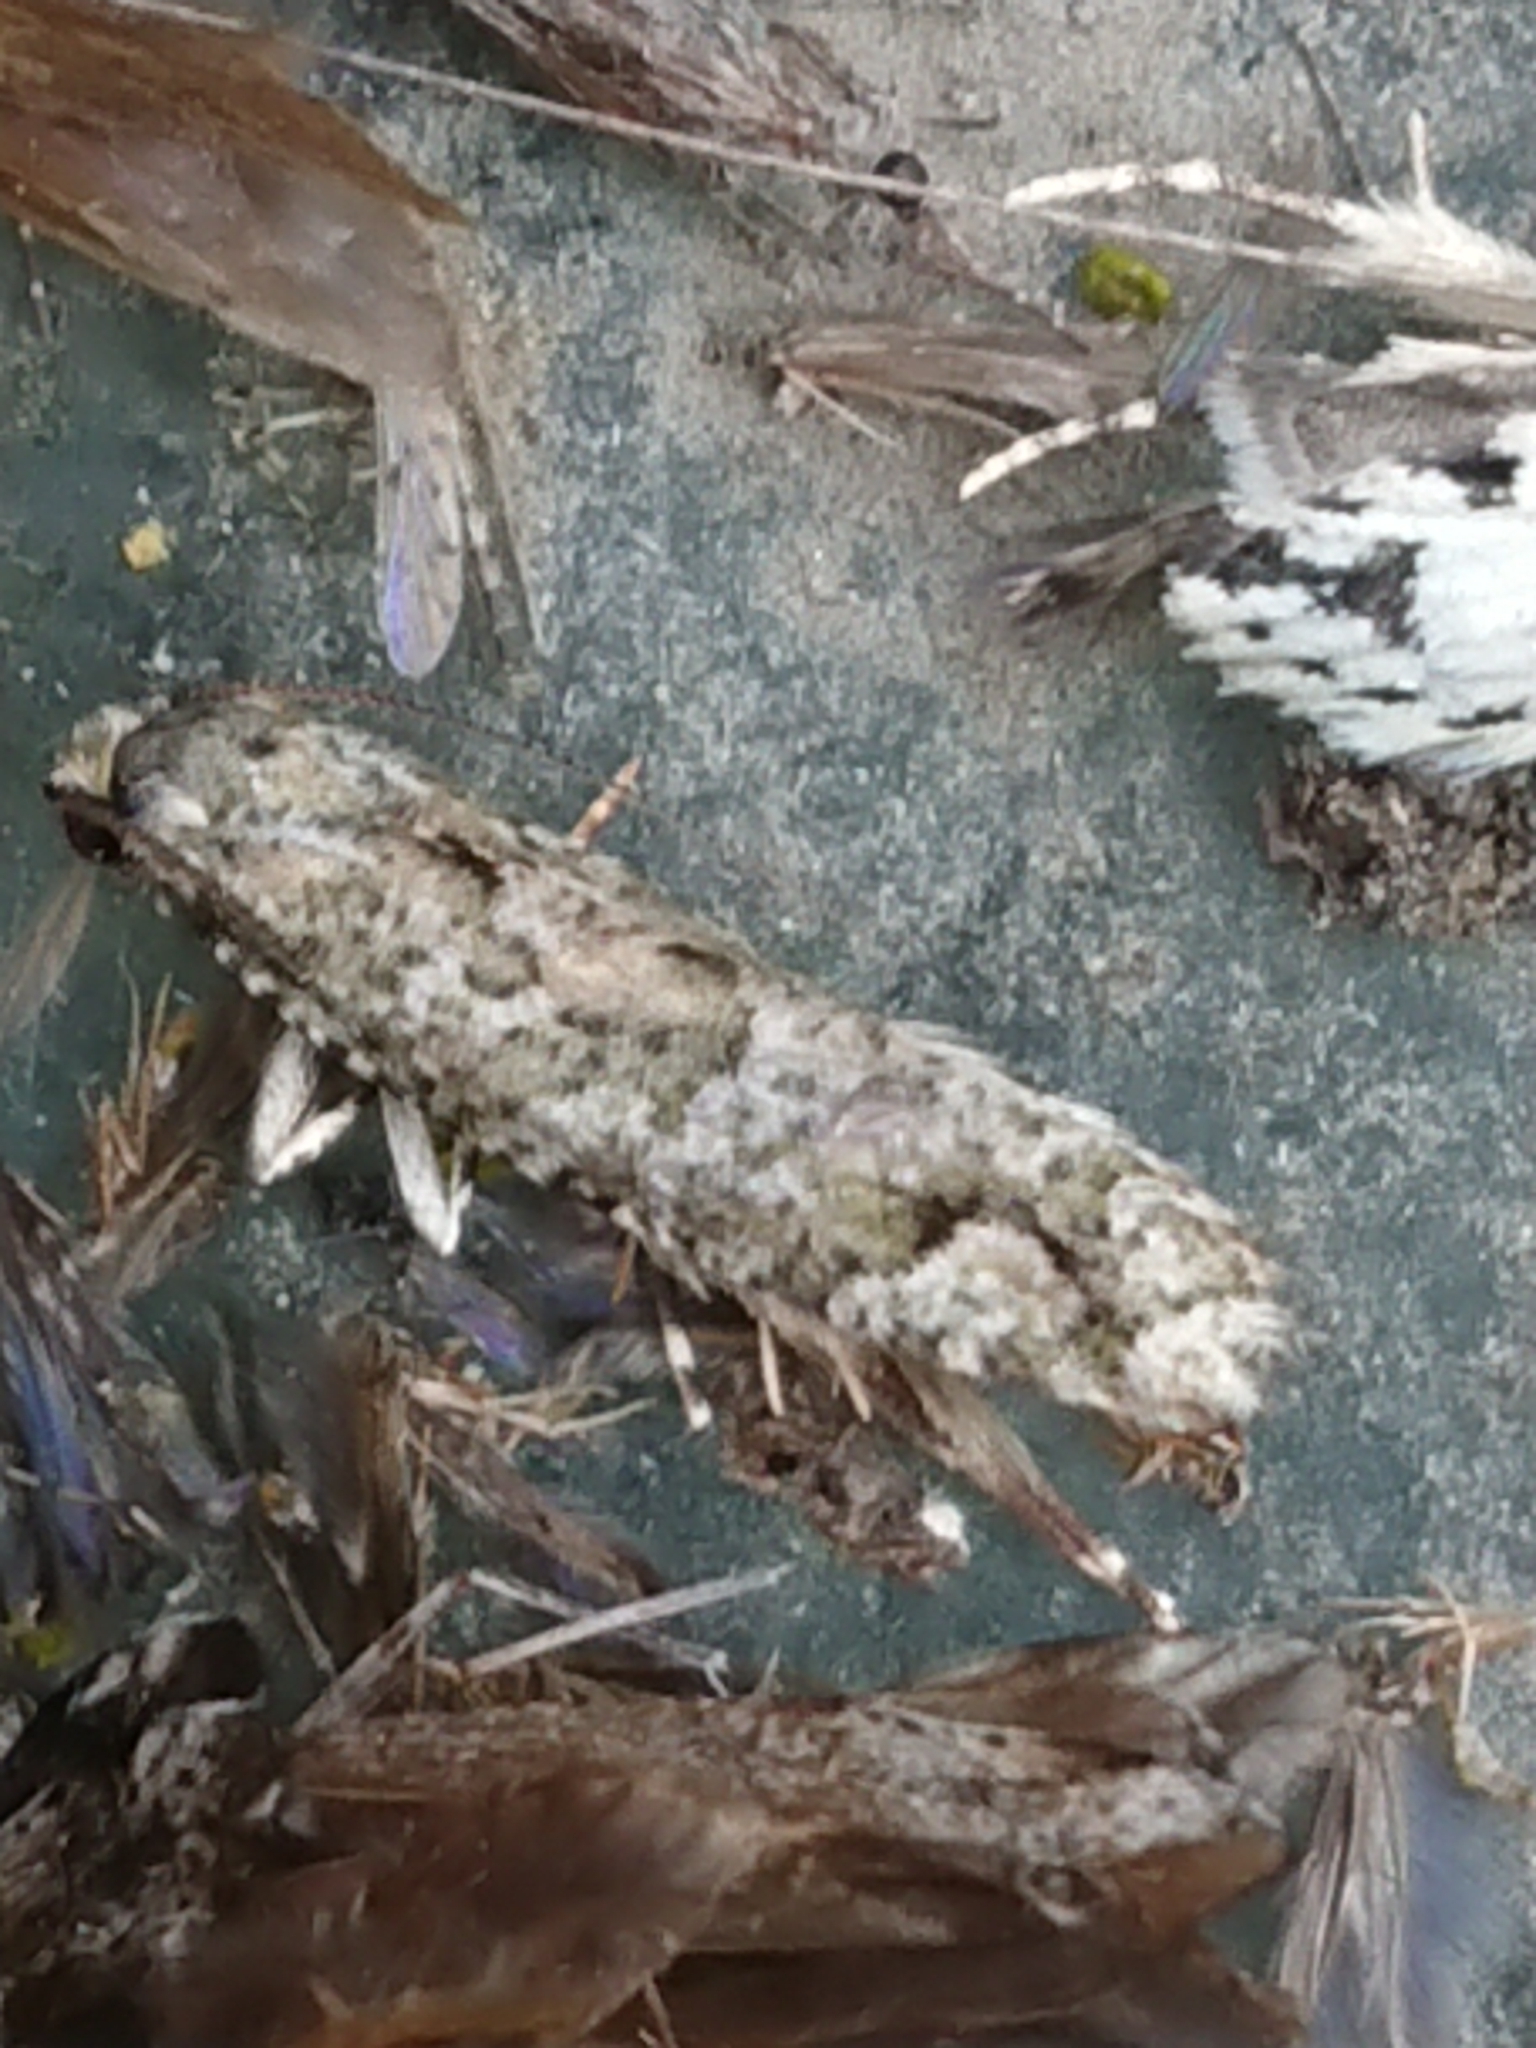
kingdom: Animalia
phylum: Arthropoda
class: Insecta
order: Lepidoptera
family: Tineidae
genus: Lysiphragma
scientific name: Lysiphragma howesii
